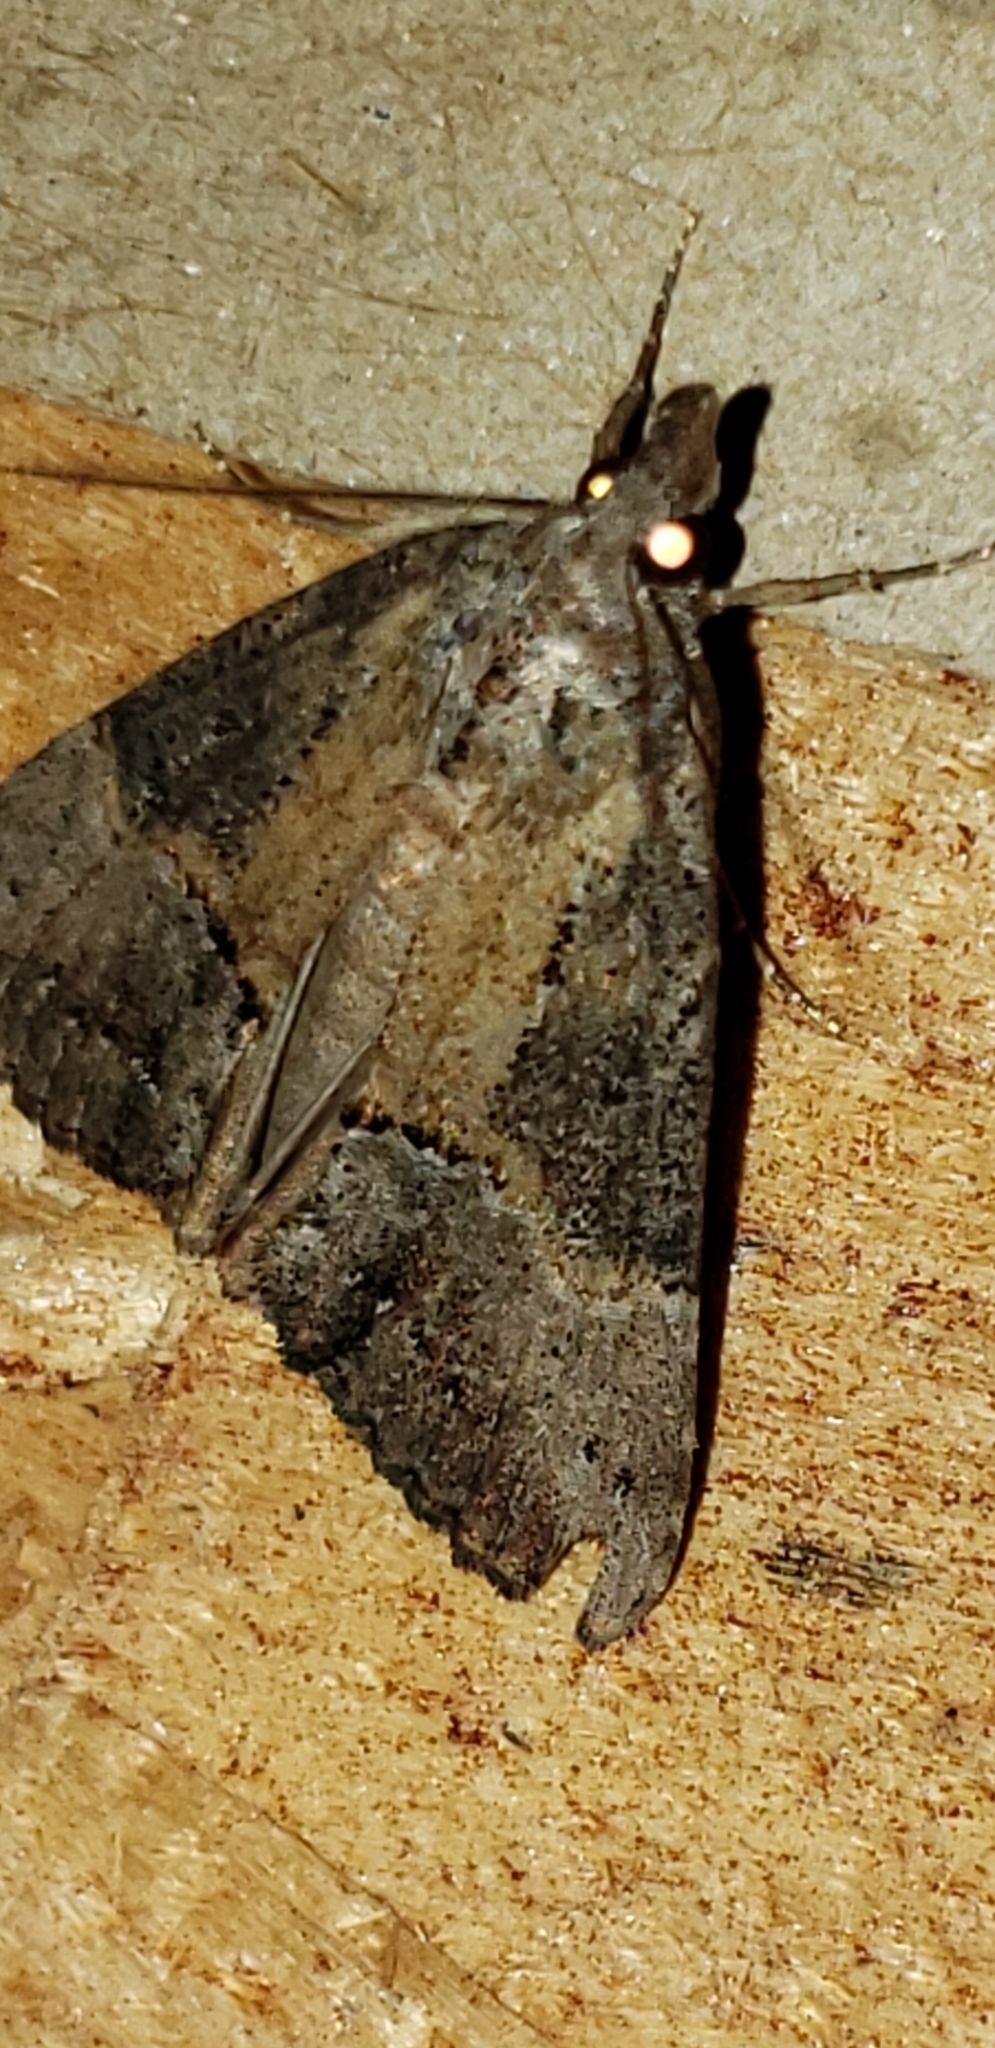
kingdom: Animalia
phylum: Arthropoda
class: Insecta
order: Lepidoptera
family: Erebidae
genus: Hypena
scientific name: Hypena scabra
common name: Green cloverworm
